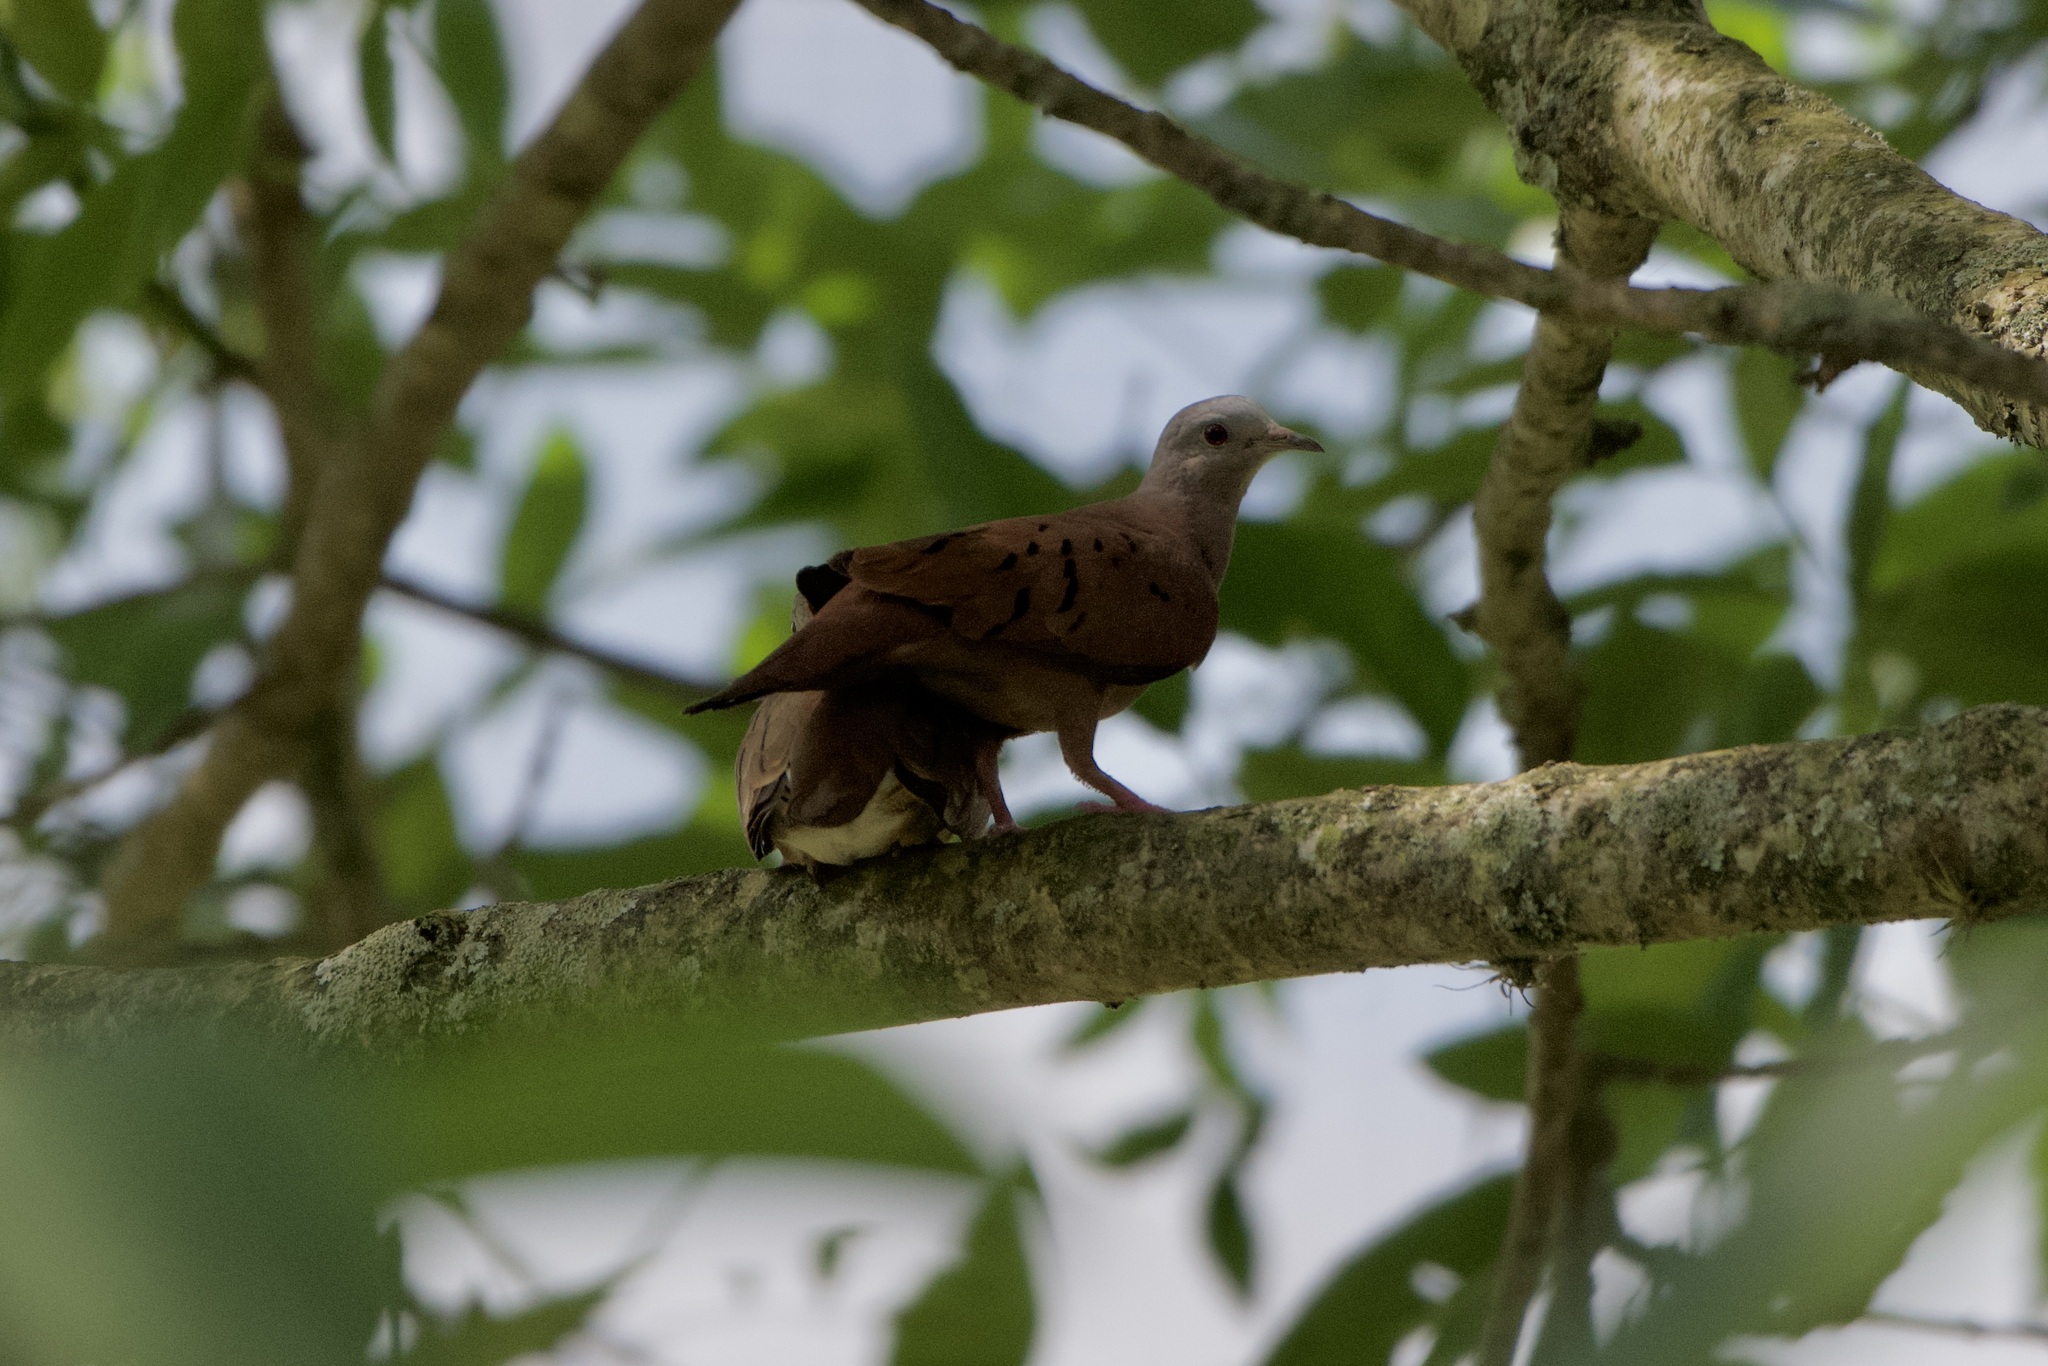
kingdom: Animalia
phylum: Chordata
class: Aves
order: Columbiformes
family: Columbidae
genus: Columbina
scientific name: Columbina talpacoti
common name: Ruddy ground dove
